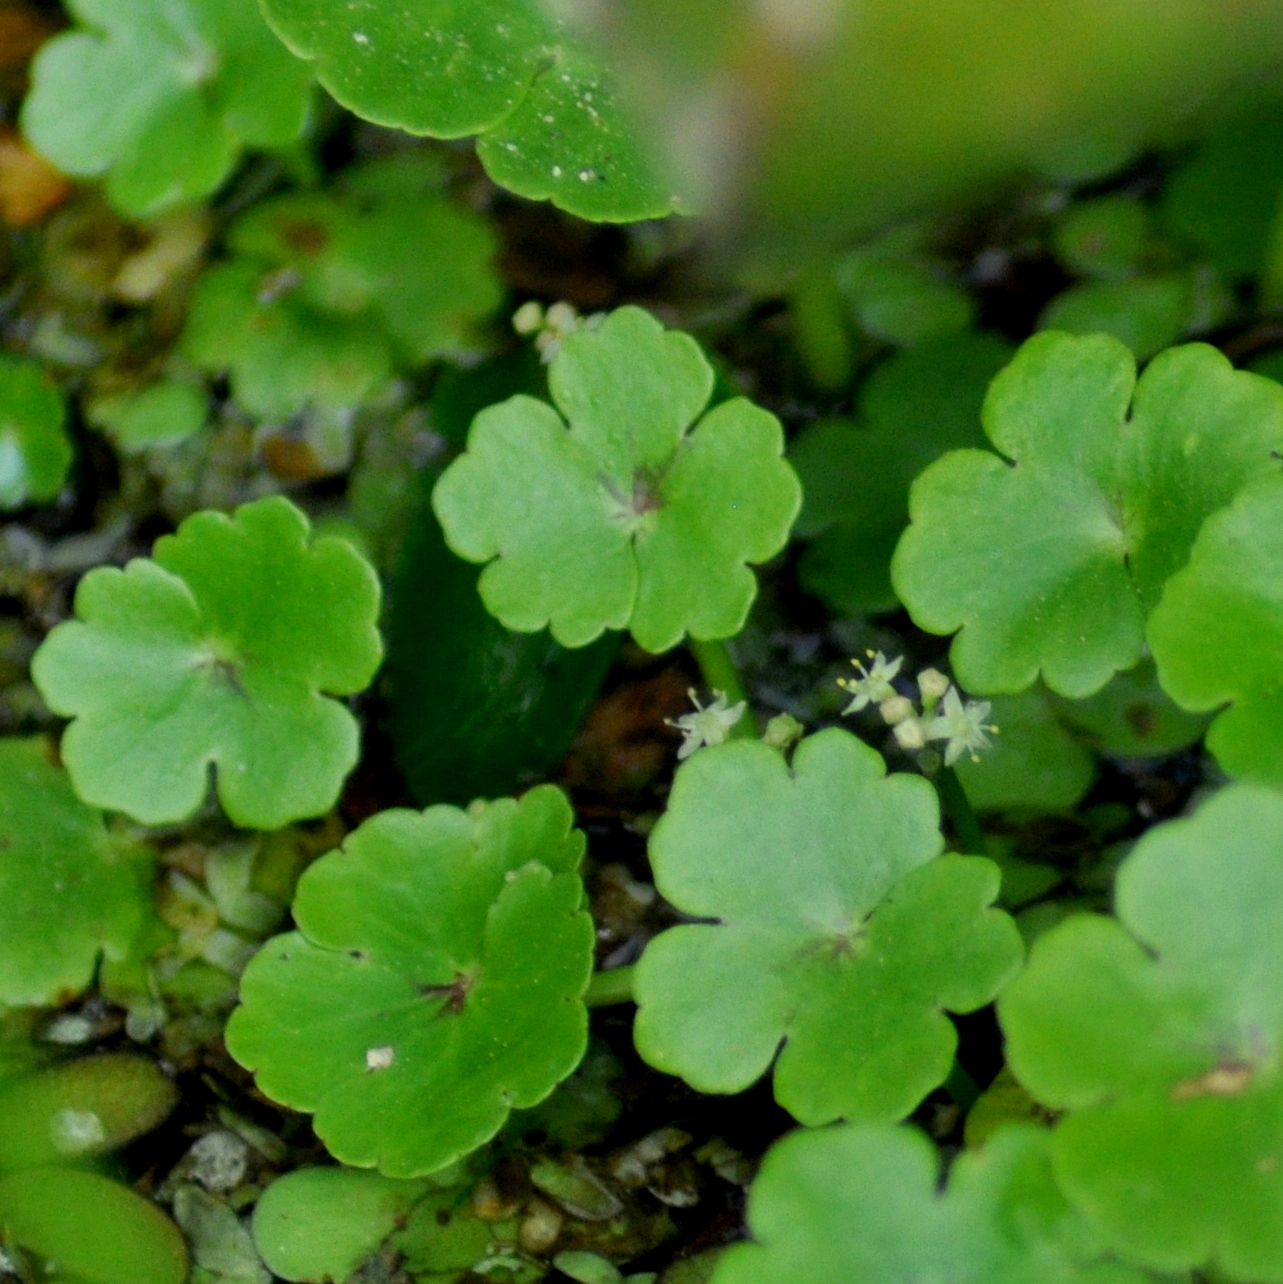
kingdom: Plantae
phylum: Tracheophyta
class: Magnoliopsida
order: Apiales
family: Araliaceae
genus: Hydrocotyle
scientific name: Hydrocotyle ranunculoides
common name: Floating pennywort
